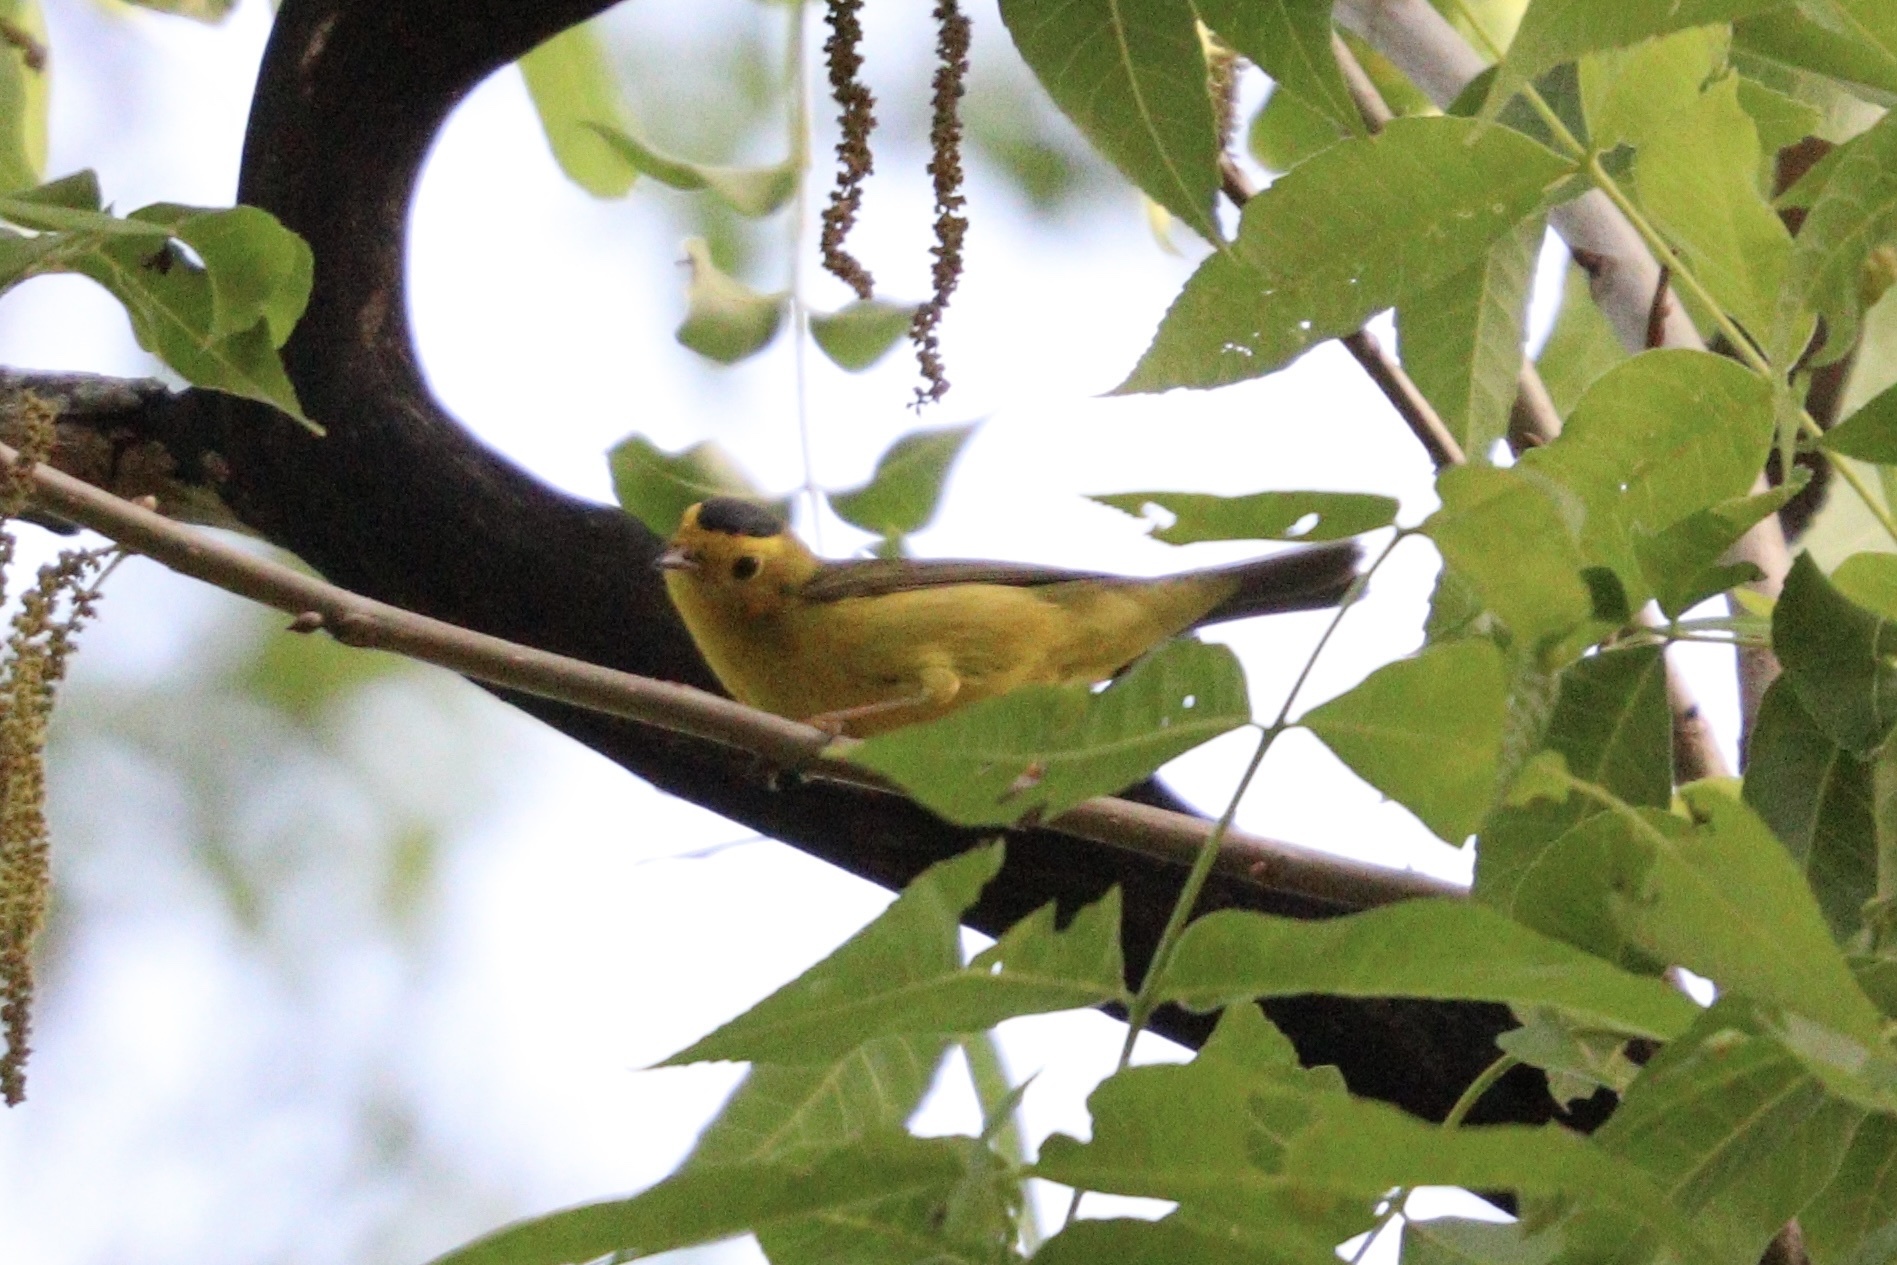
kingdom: Animalia
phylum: Chordata
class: Aves
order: Passeriformes
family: Parulidae
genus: Cardellina
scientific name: Cardellina pusilla
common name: Wilson's warbler
